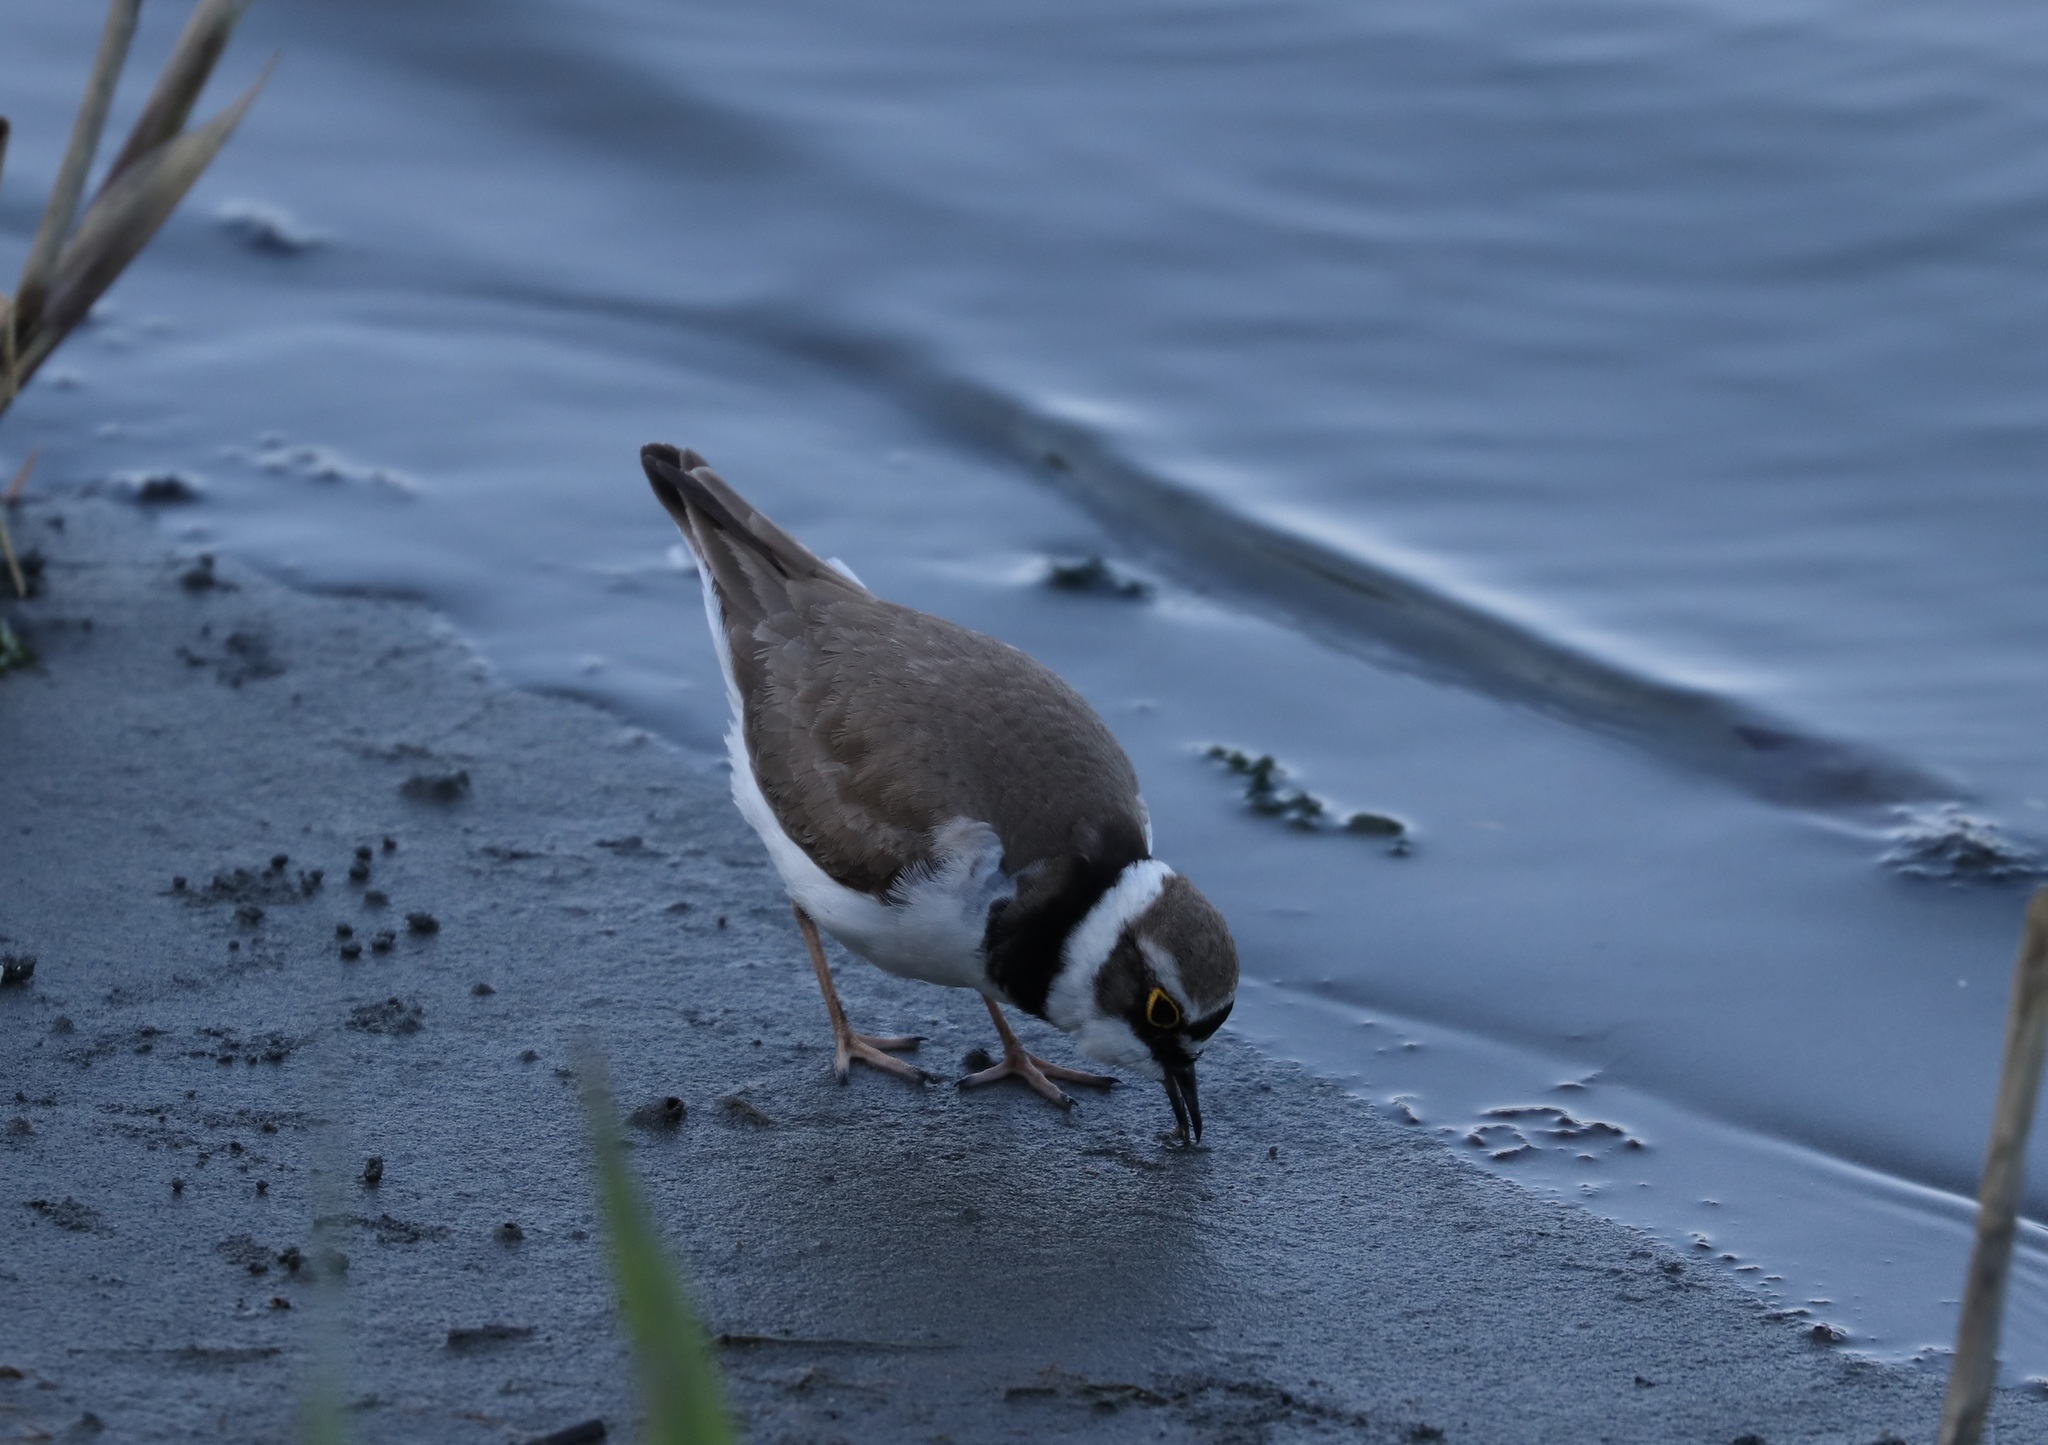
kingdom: Animalia
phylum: Chordata
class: Aves
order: Charadriiformes
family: Charadriidae
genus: Charadrius
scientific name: Charadrius dubius
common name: Little ringed plover
